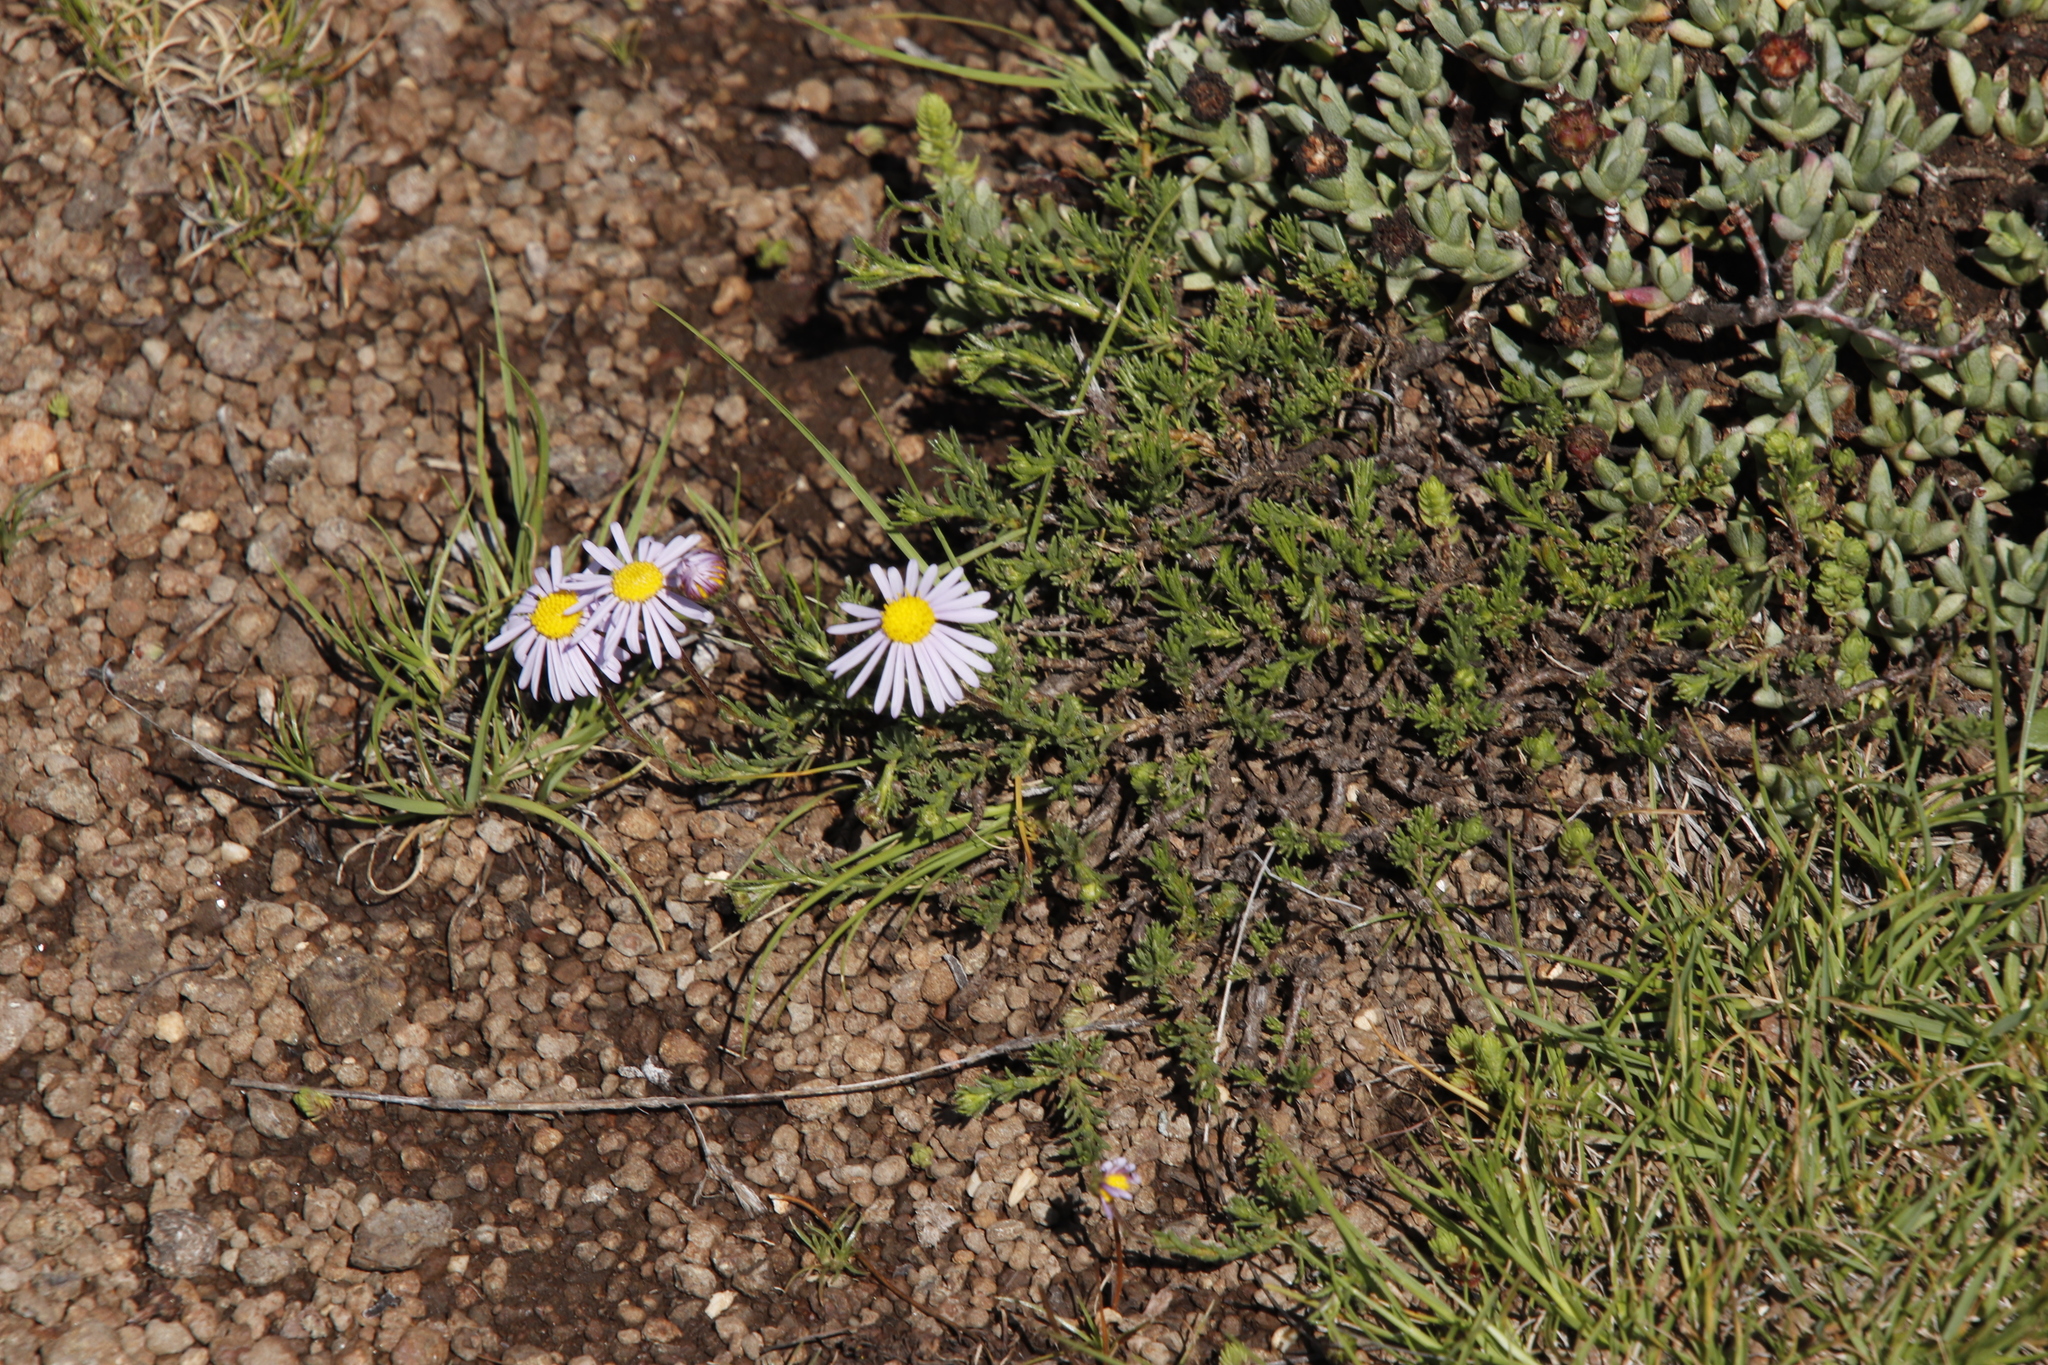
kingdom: Plantae
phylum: Tracheophyta
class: Magnoliopsida
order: Asterales
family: Asteraceae
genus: Felicia
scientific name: Felicia caespitosa
